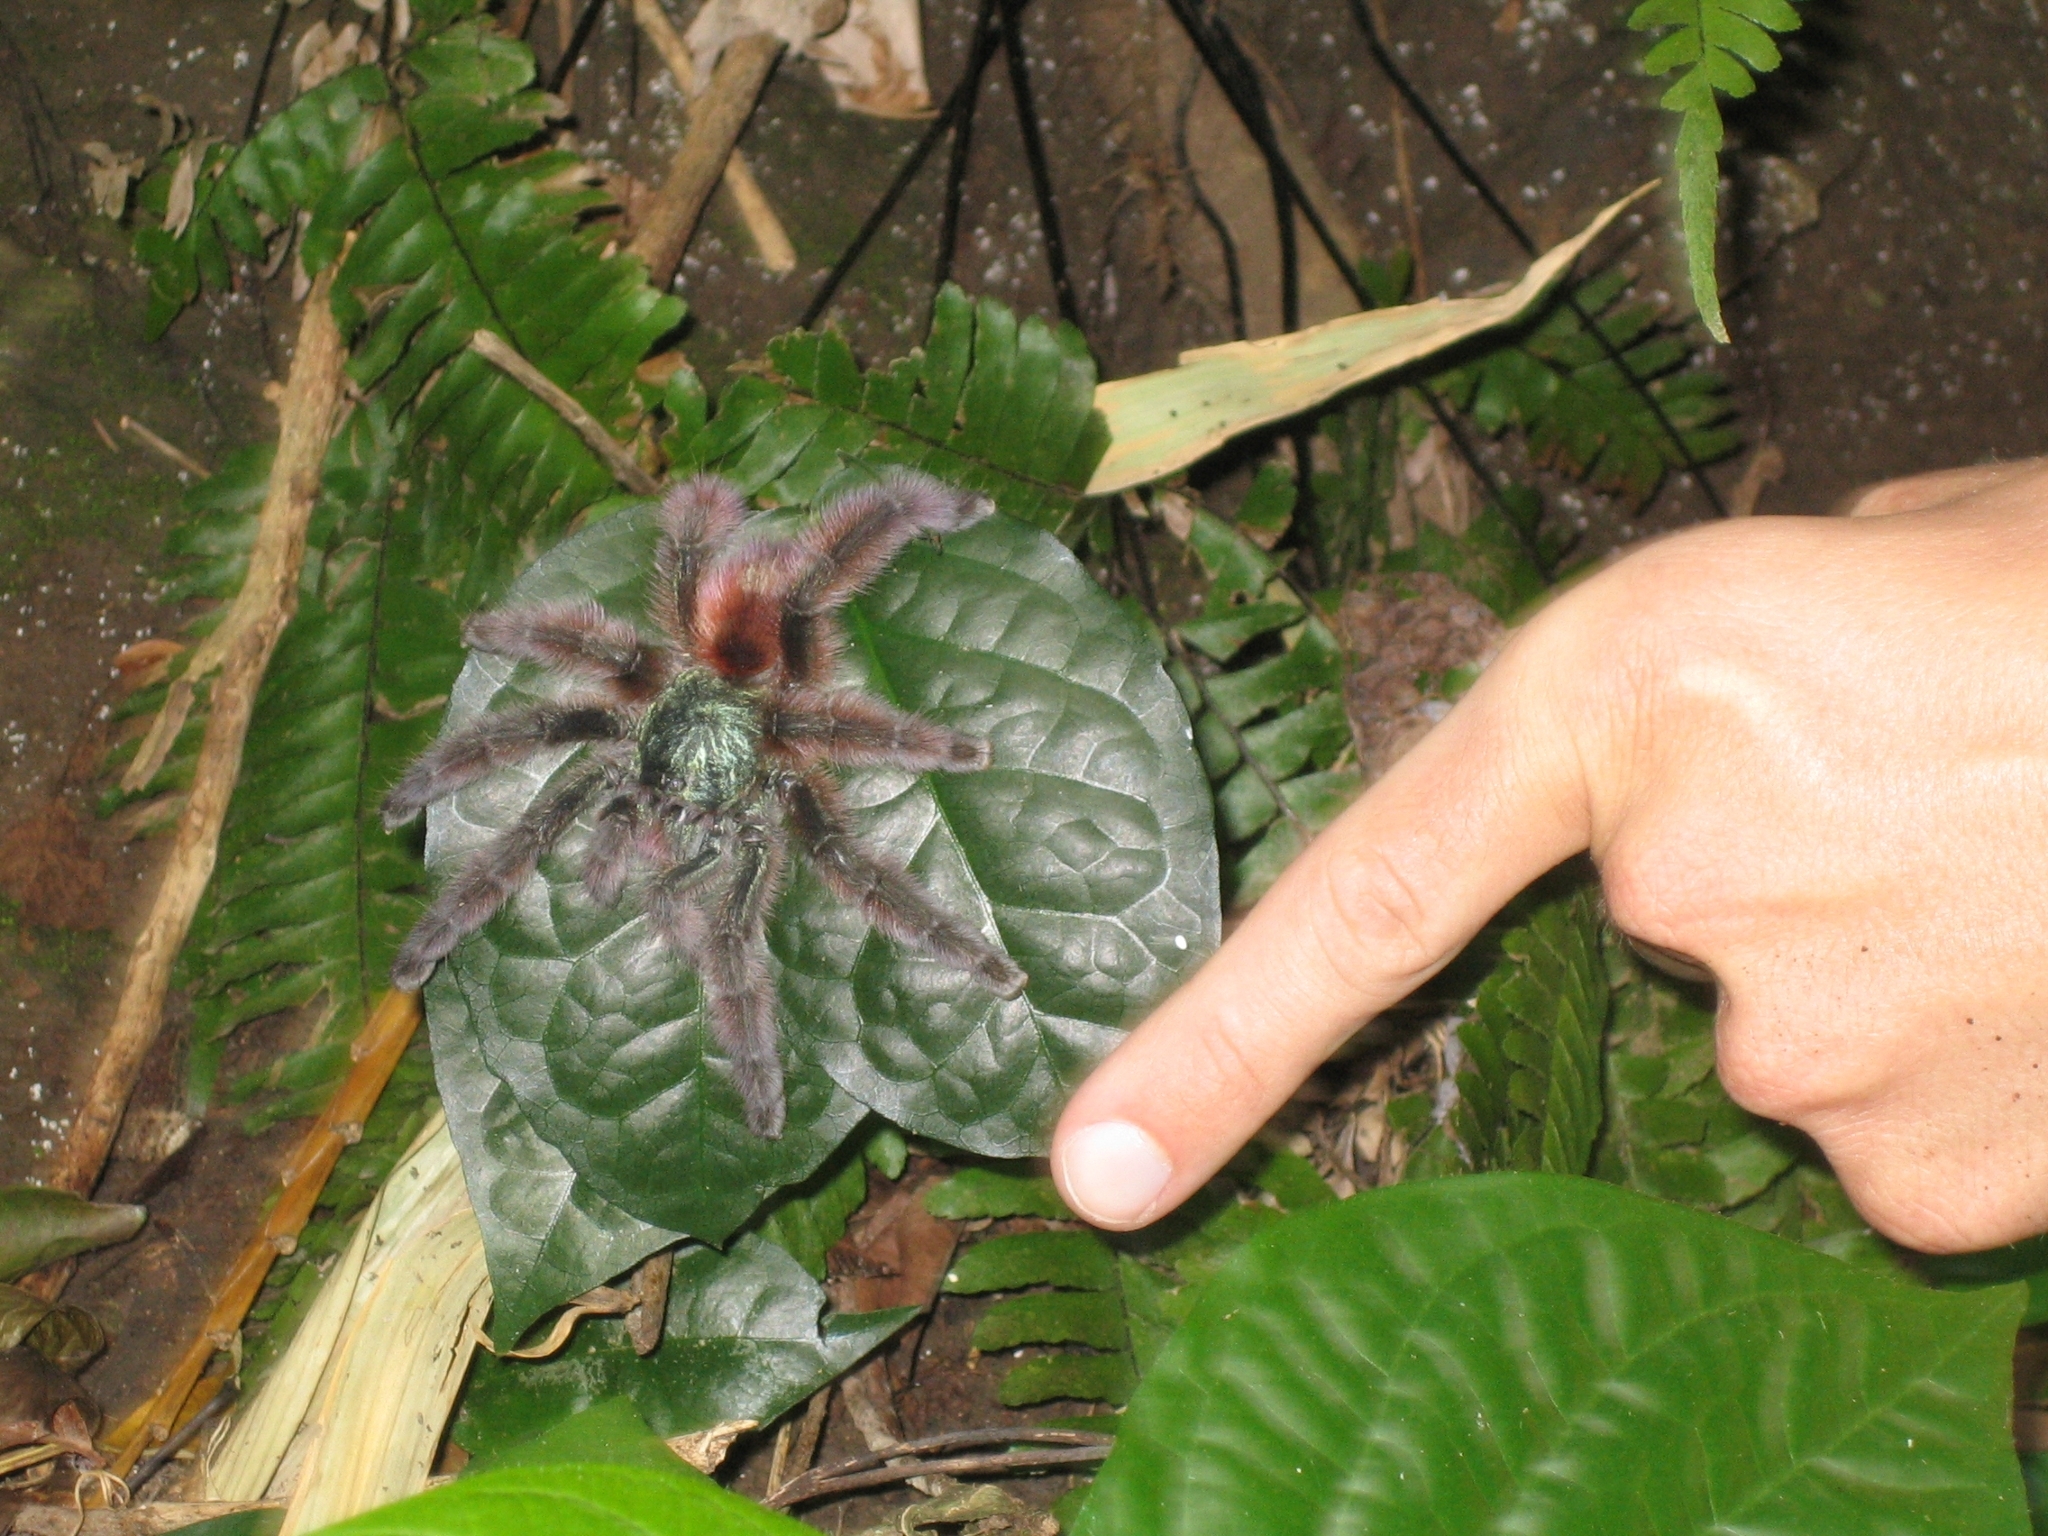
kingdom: Animalia
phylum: Arthropoda
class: Arachnida
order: Araneae
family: Theraphosidae
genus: Caribena
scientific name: Caribena versicolor
